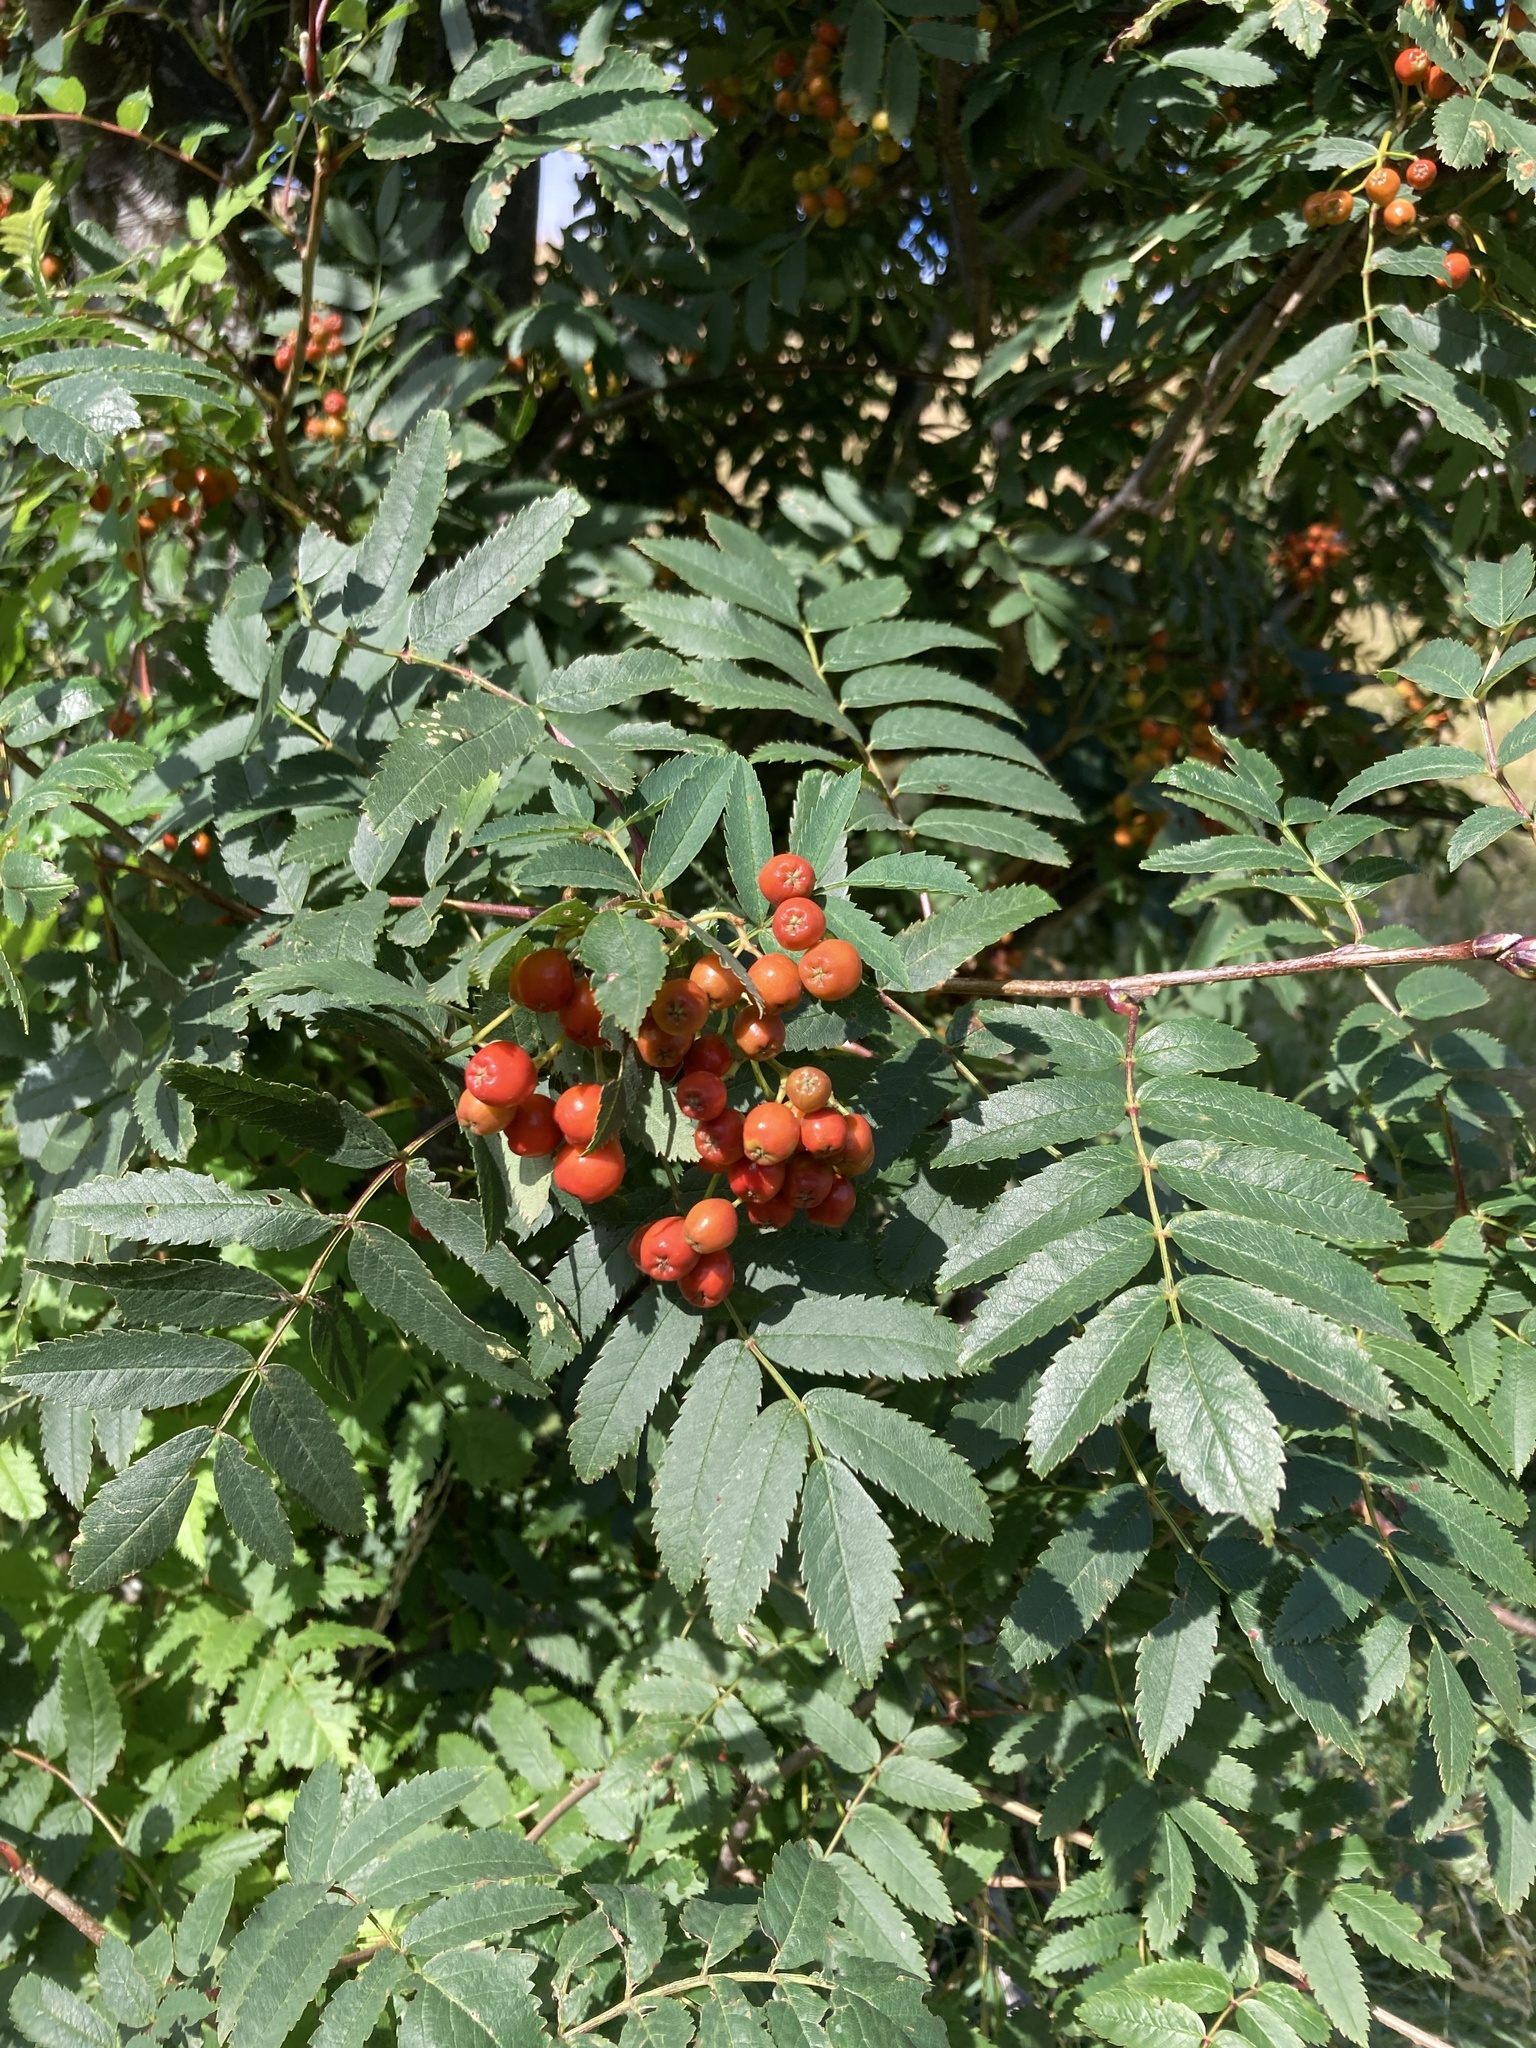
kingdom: Plantae
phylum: Tracheophyta
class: Magnoliopsida
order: Rosales
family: Rosaceae
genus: Sorbus
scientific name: Sorbus aucuparia
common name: Rowan
